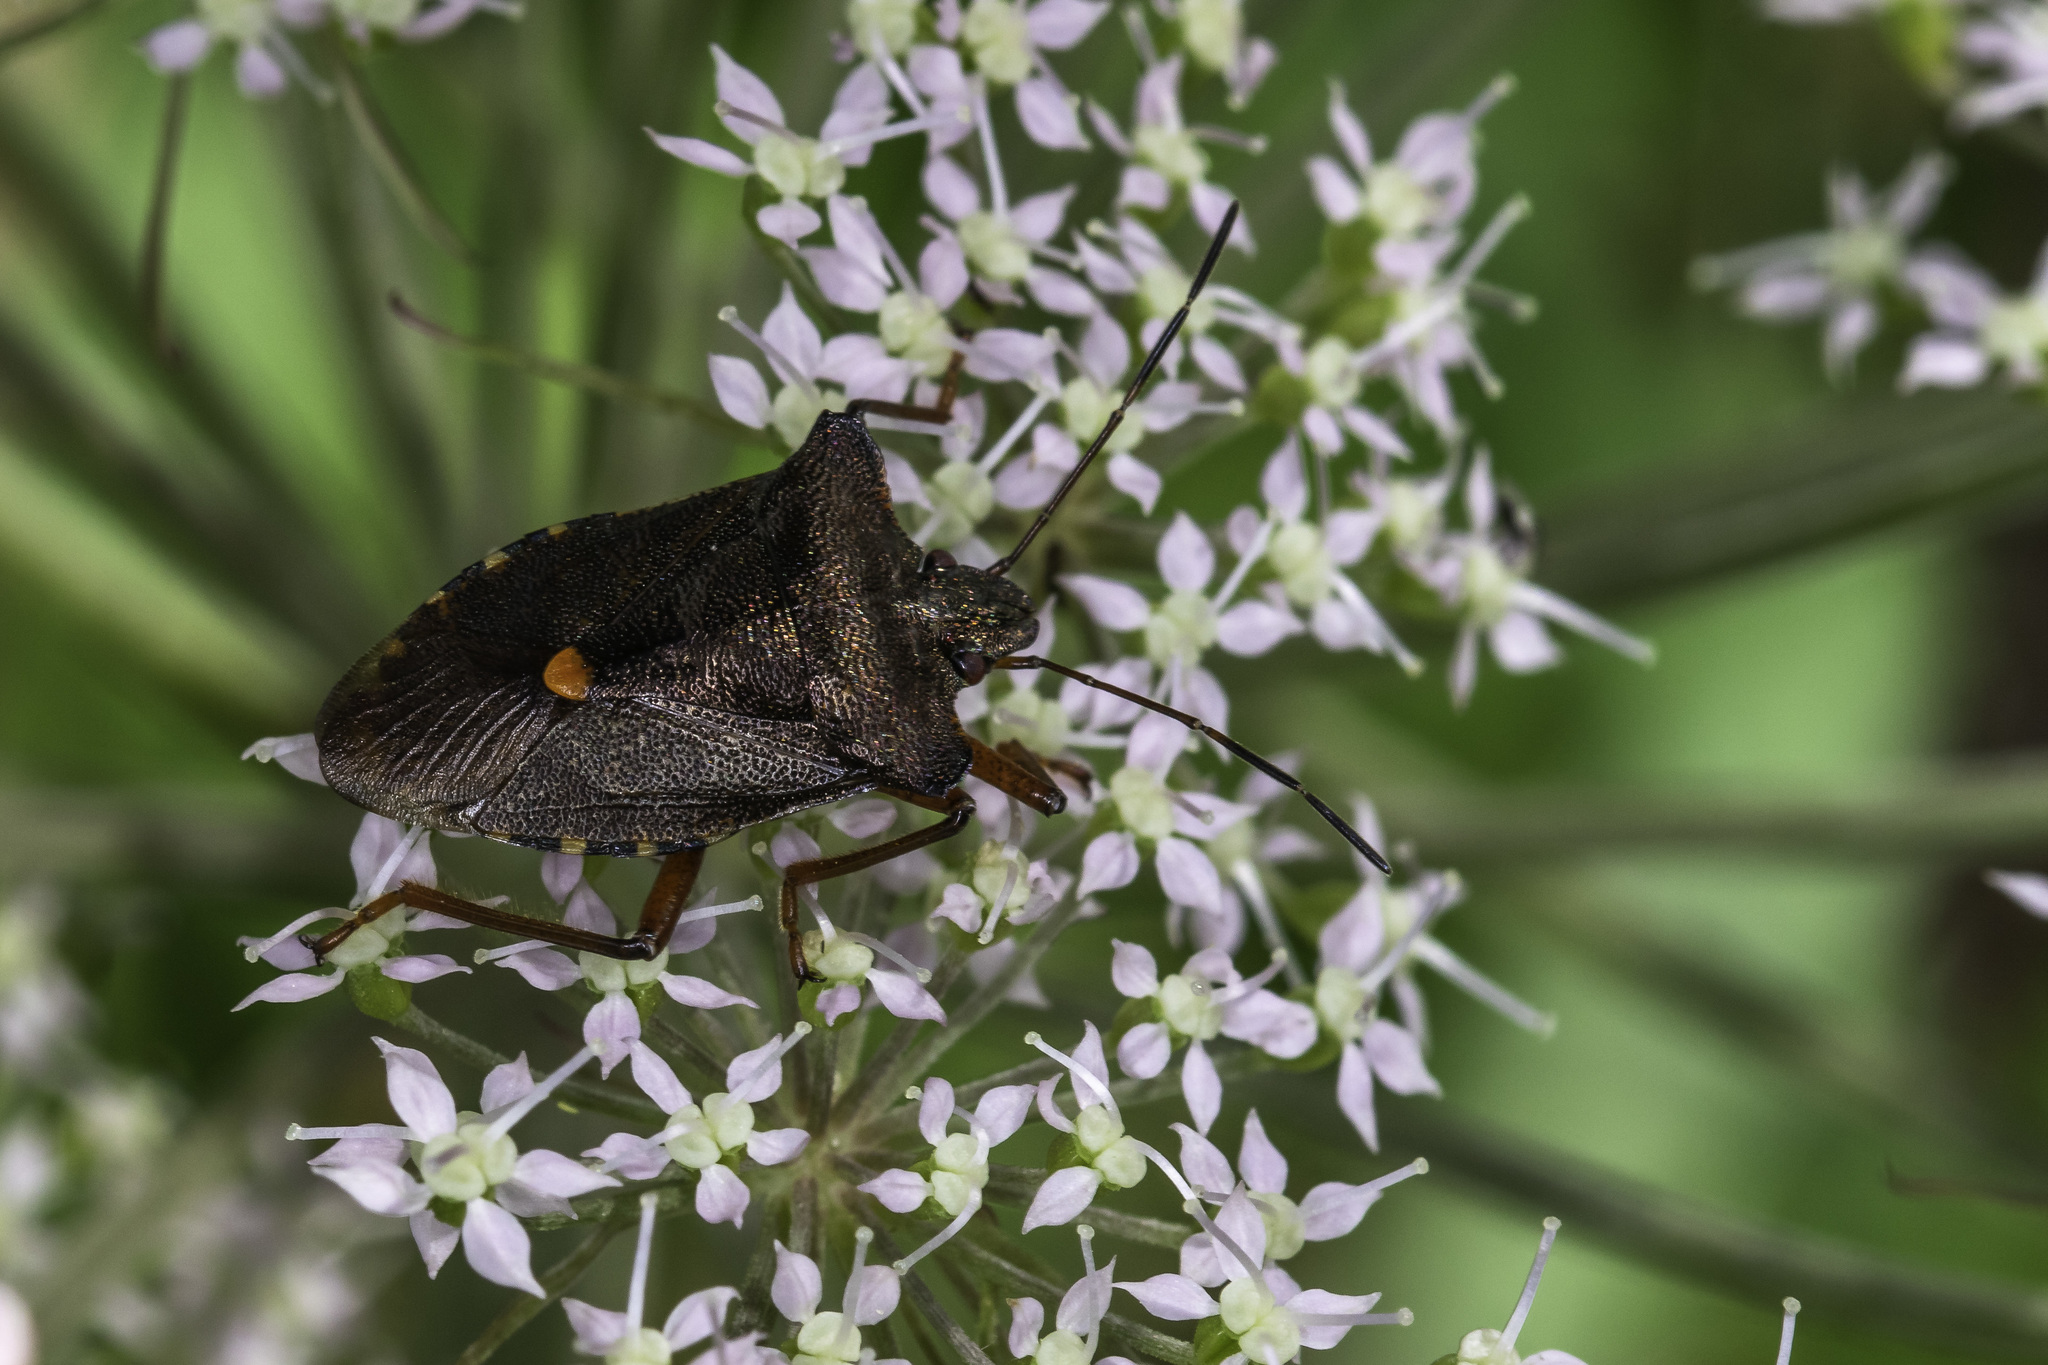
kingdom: Animalia
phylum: Arthropoda
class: Insecta
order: Hemiptera
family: Pentatomidae
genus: Pentatoma
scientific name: Pentatoma rufipes
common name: Forest bug
